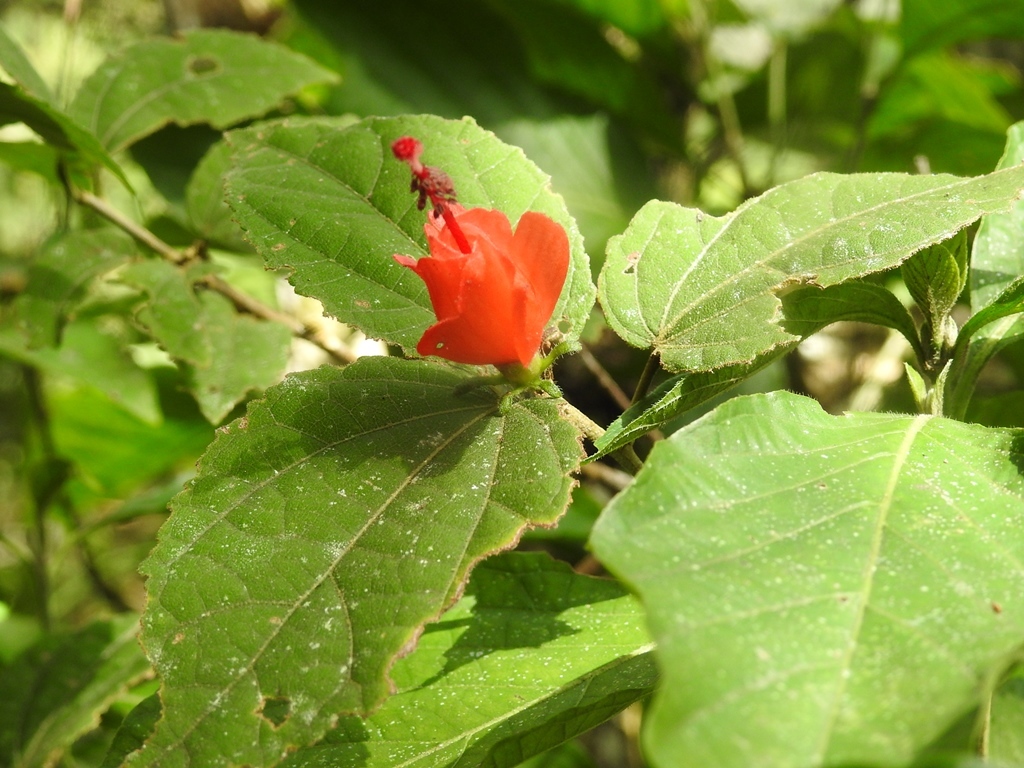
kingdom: Plantae
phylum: Tracheophyta
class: Magnoliopsida
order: Malvales
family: Malvaceae
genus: Malvaviscus
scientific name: Malvaviscus arboreus
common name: Wax mallow
